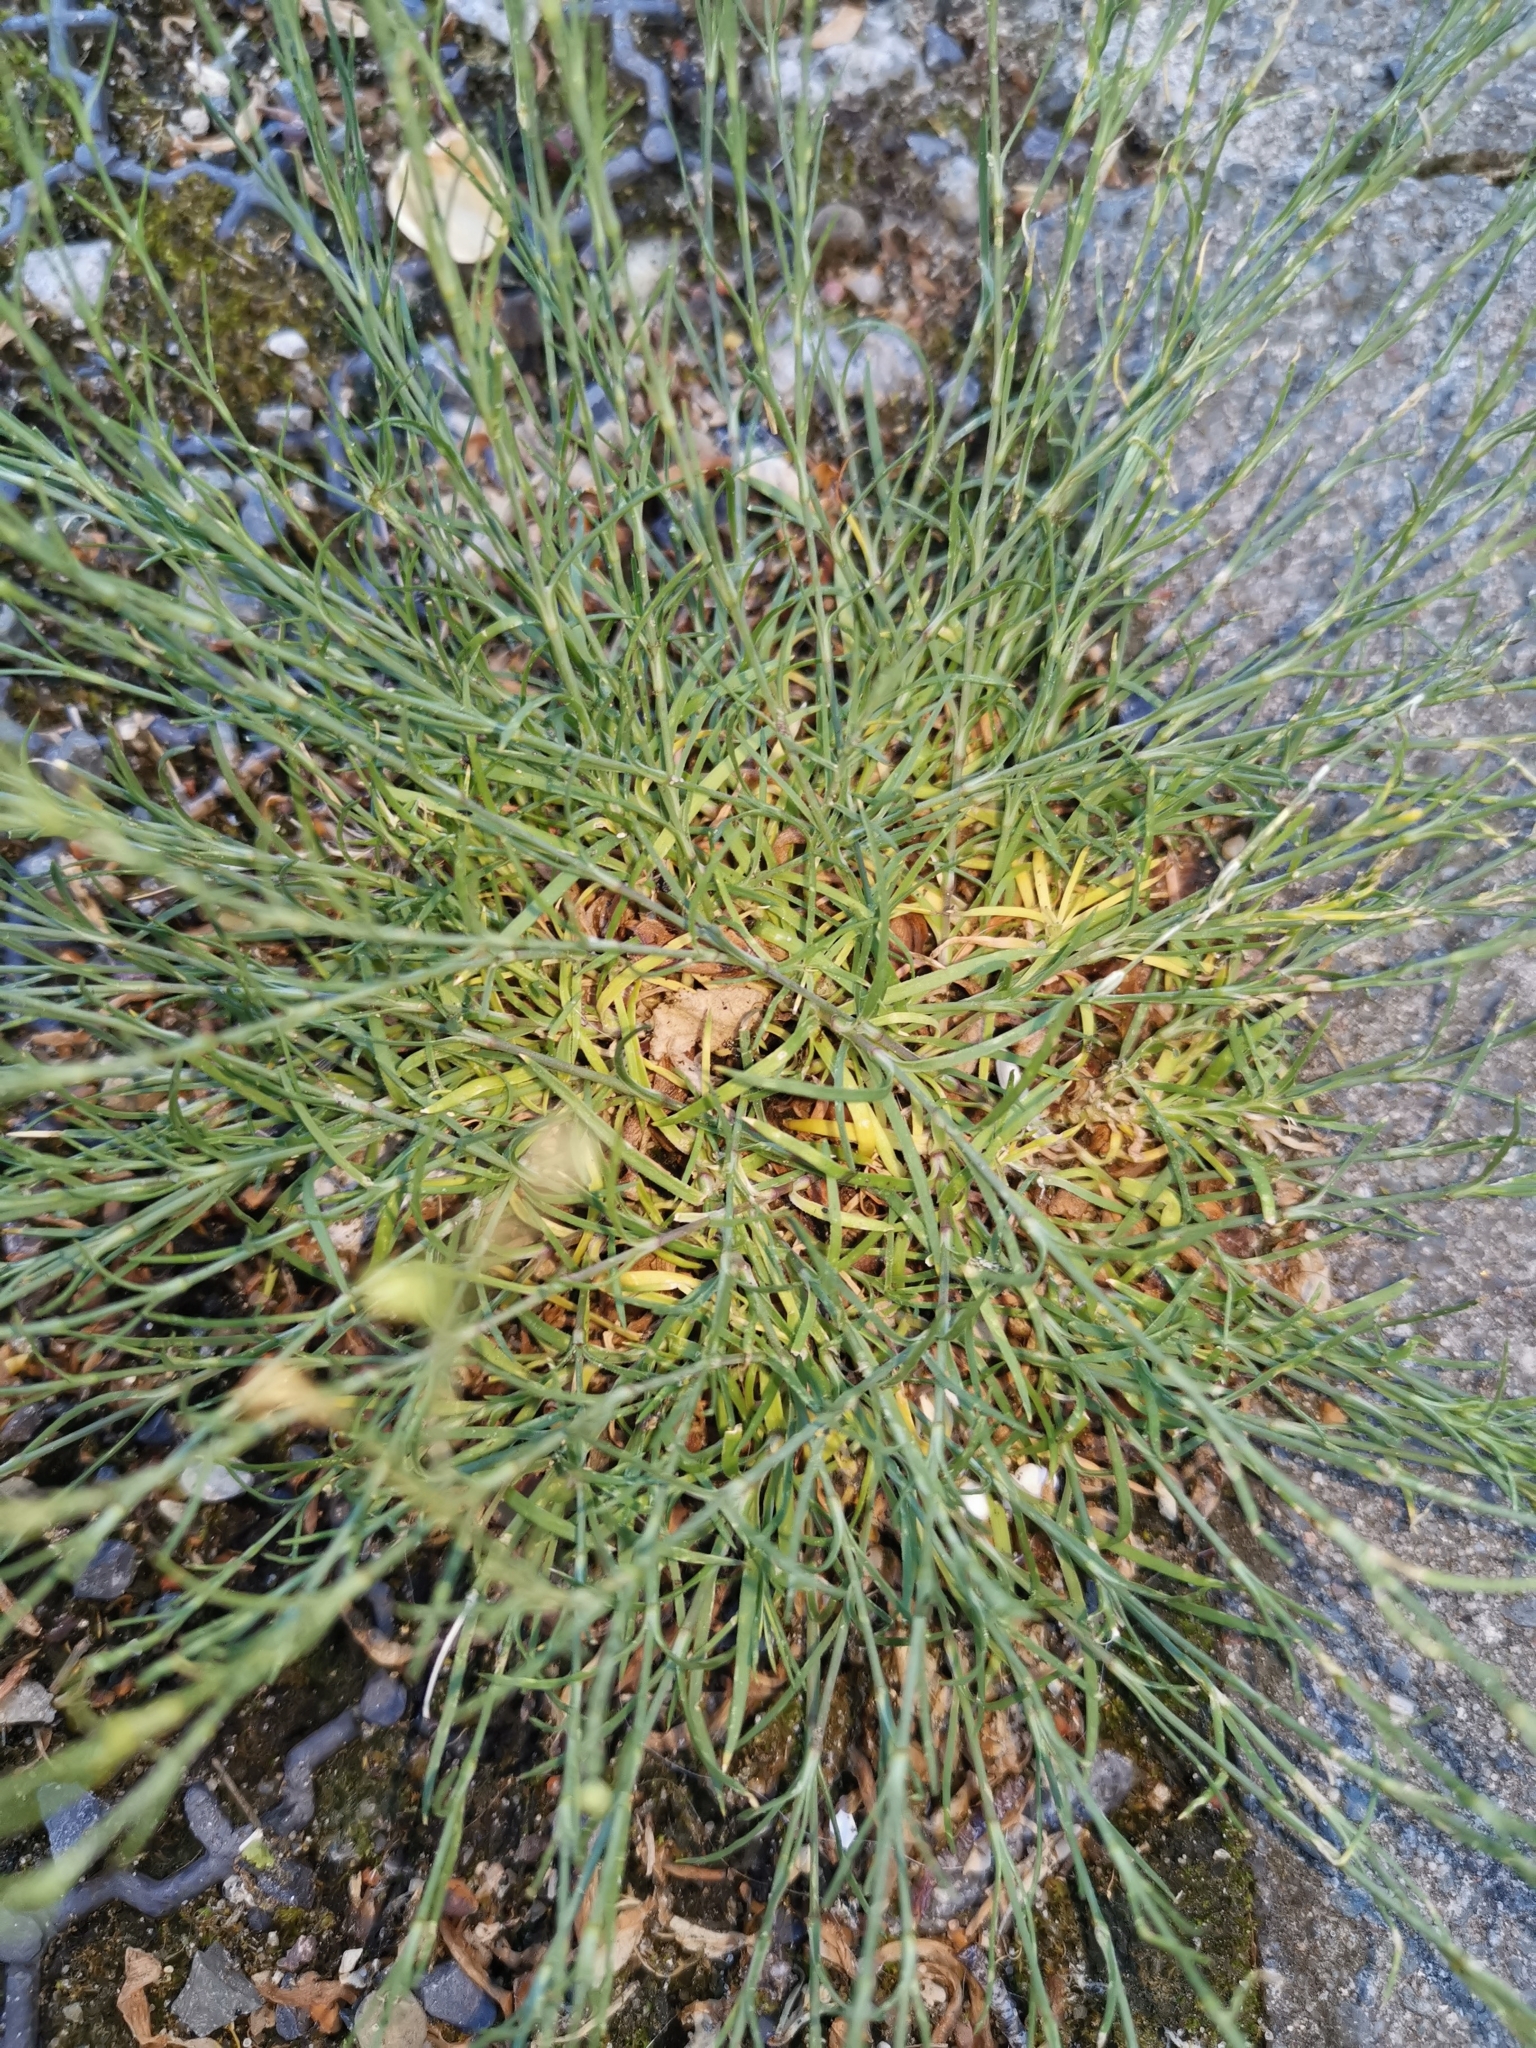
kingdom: Plantae
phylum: Tracheophyta
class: Magnoliopsida
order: Caryophyllales
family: Caryophyllaceae
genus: Petrorhagia
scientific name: Petrorhagia saxifraga
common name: Tunicflower
